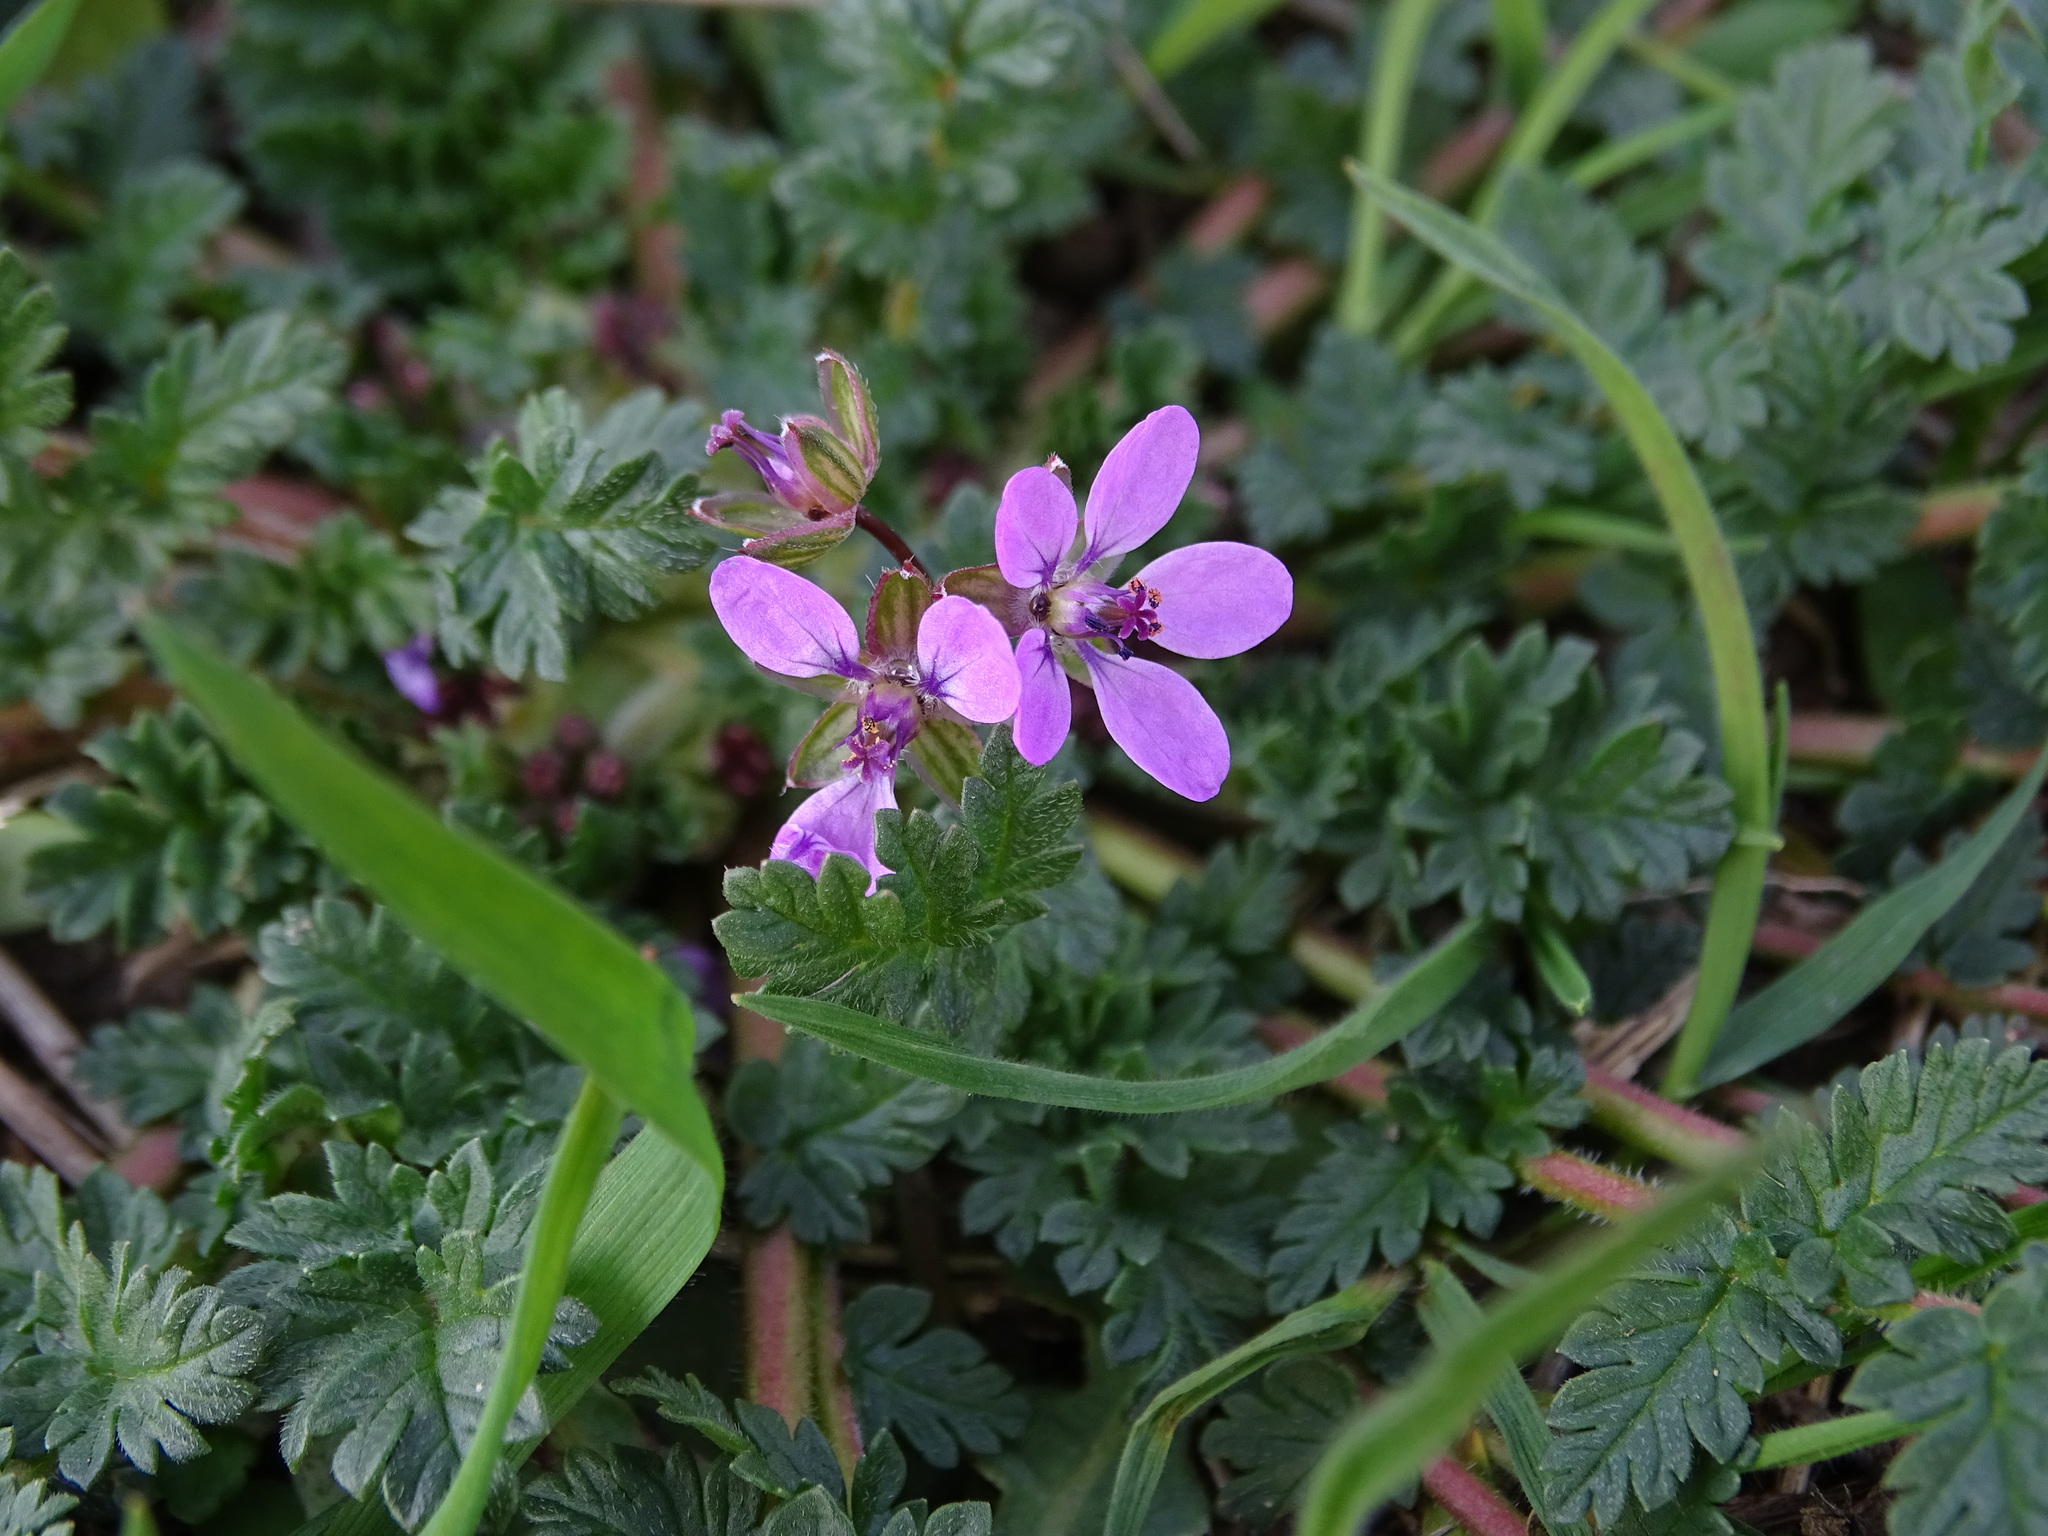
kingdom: Plantae
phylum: Tracheophyta
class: Magnoliopsida
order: Geraniales
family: Geraniaceae
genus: Erodium
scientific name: Erodium cicutarium
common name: Common stork's-bill
